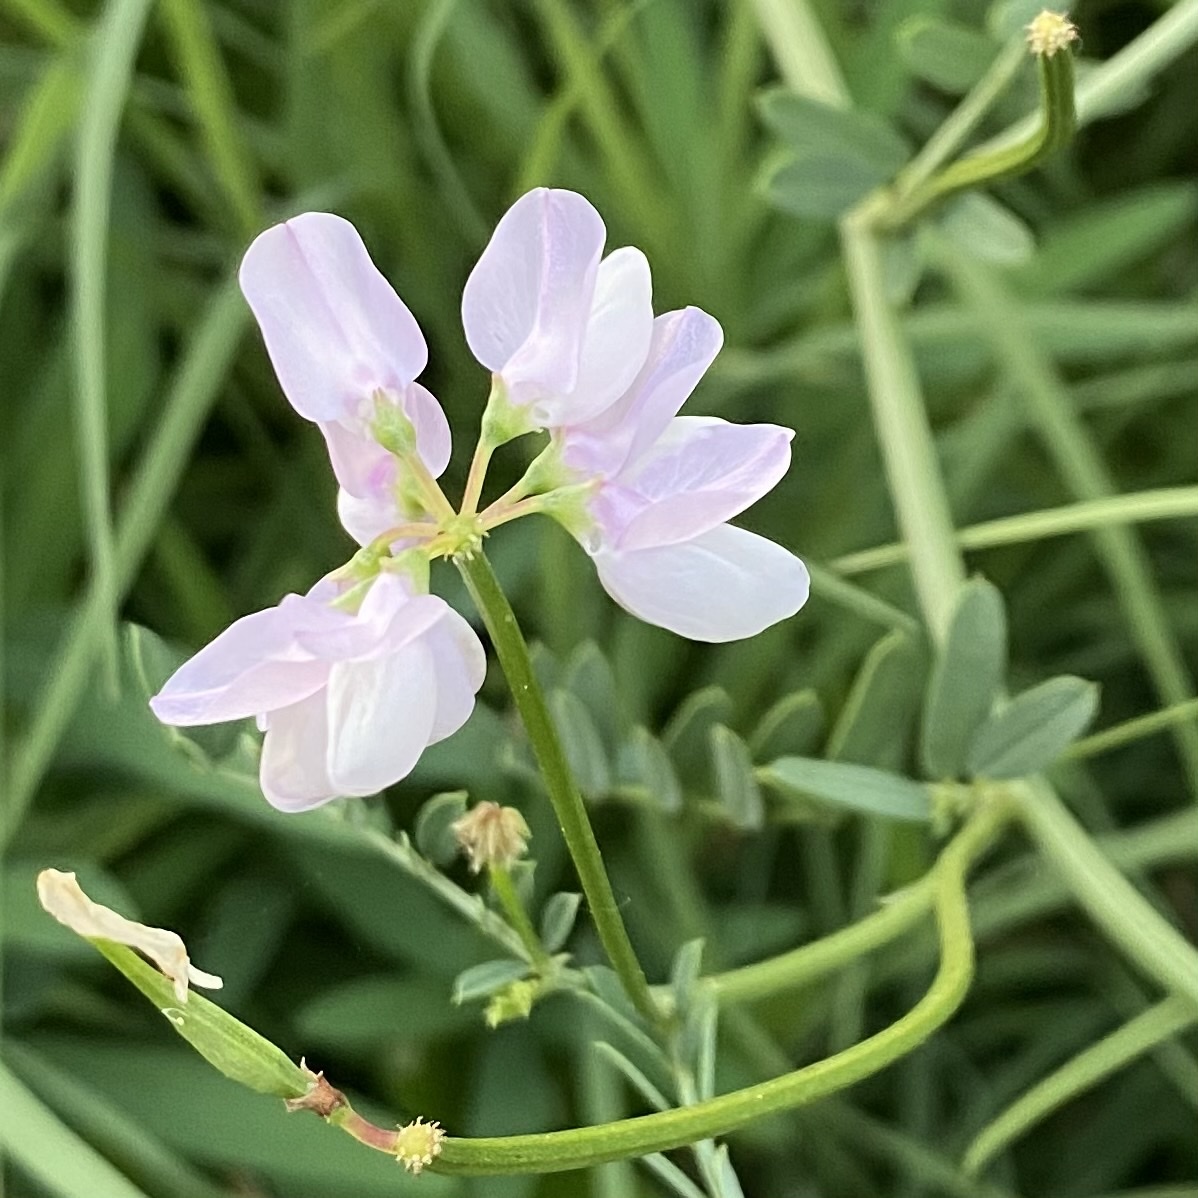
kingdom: Plantae
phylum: Tracheophyta
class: Magnoliopsida
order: Fabales
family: Fabaceae
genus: Coronilla
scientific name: Coronilla varia
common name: Crownvetch
